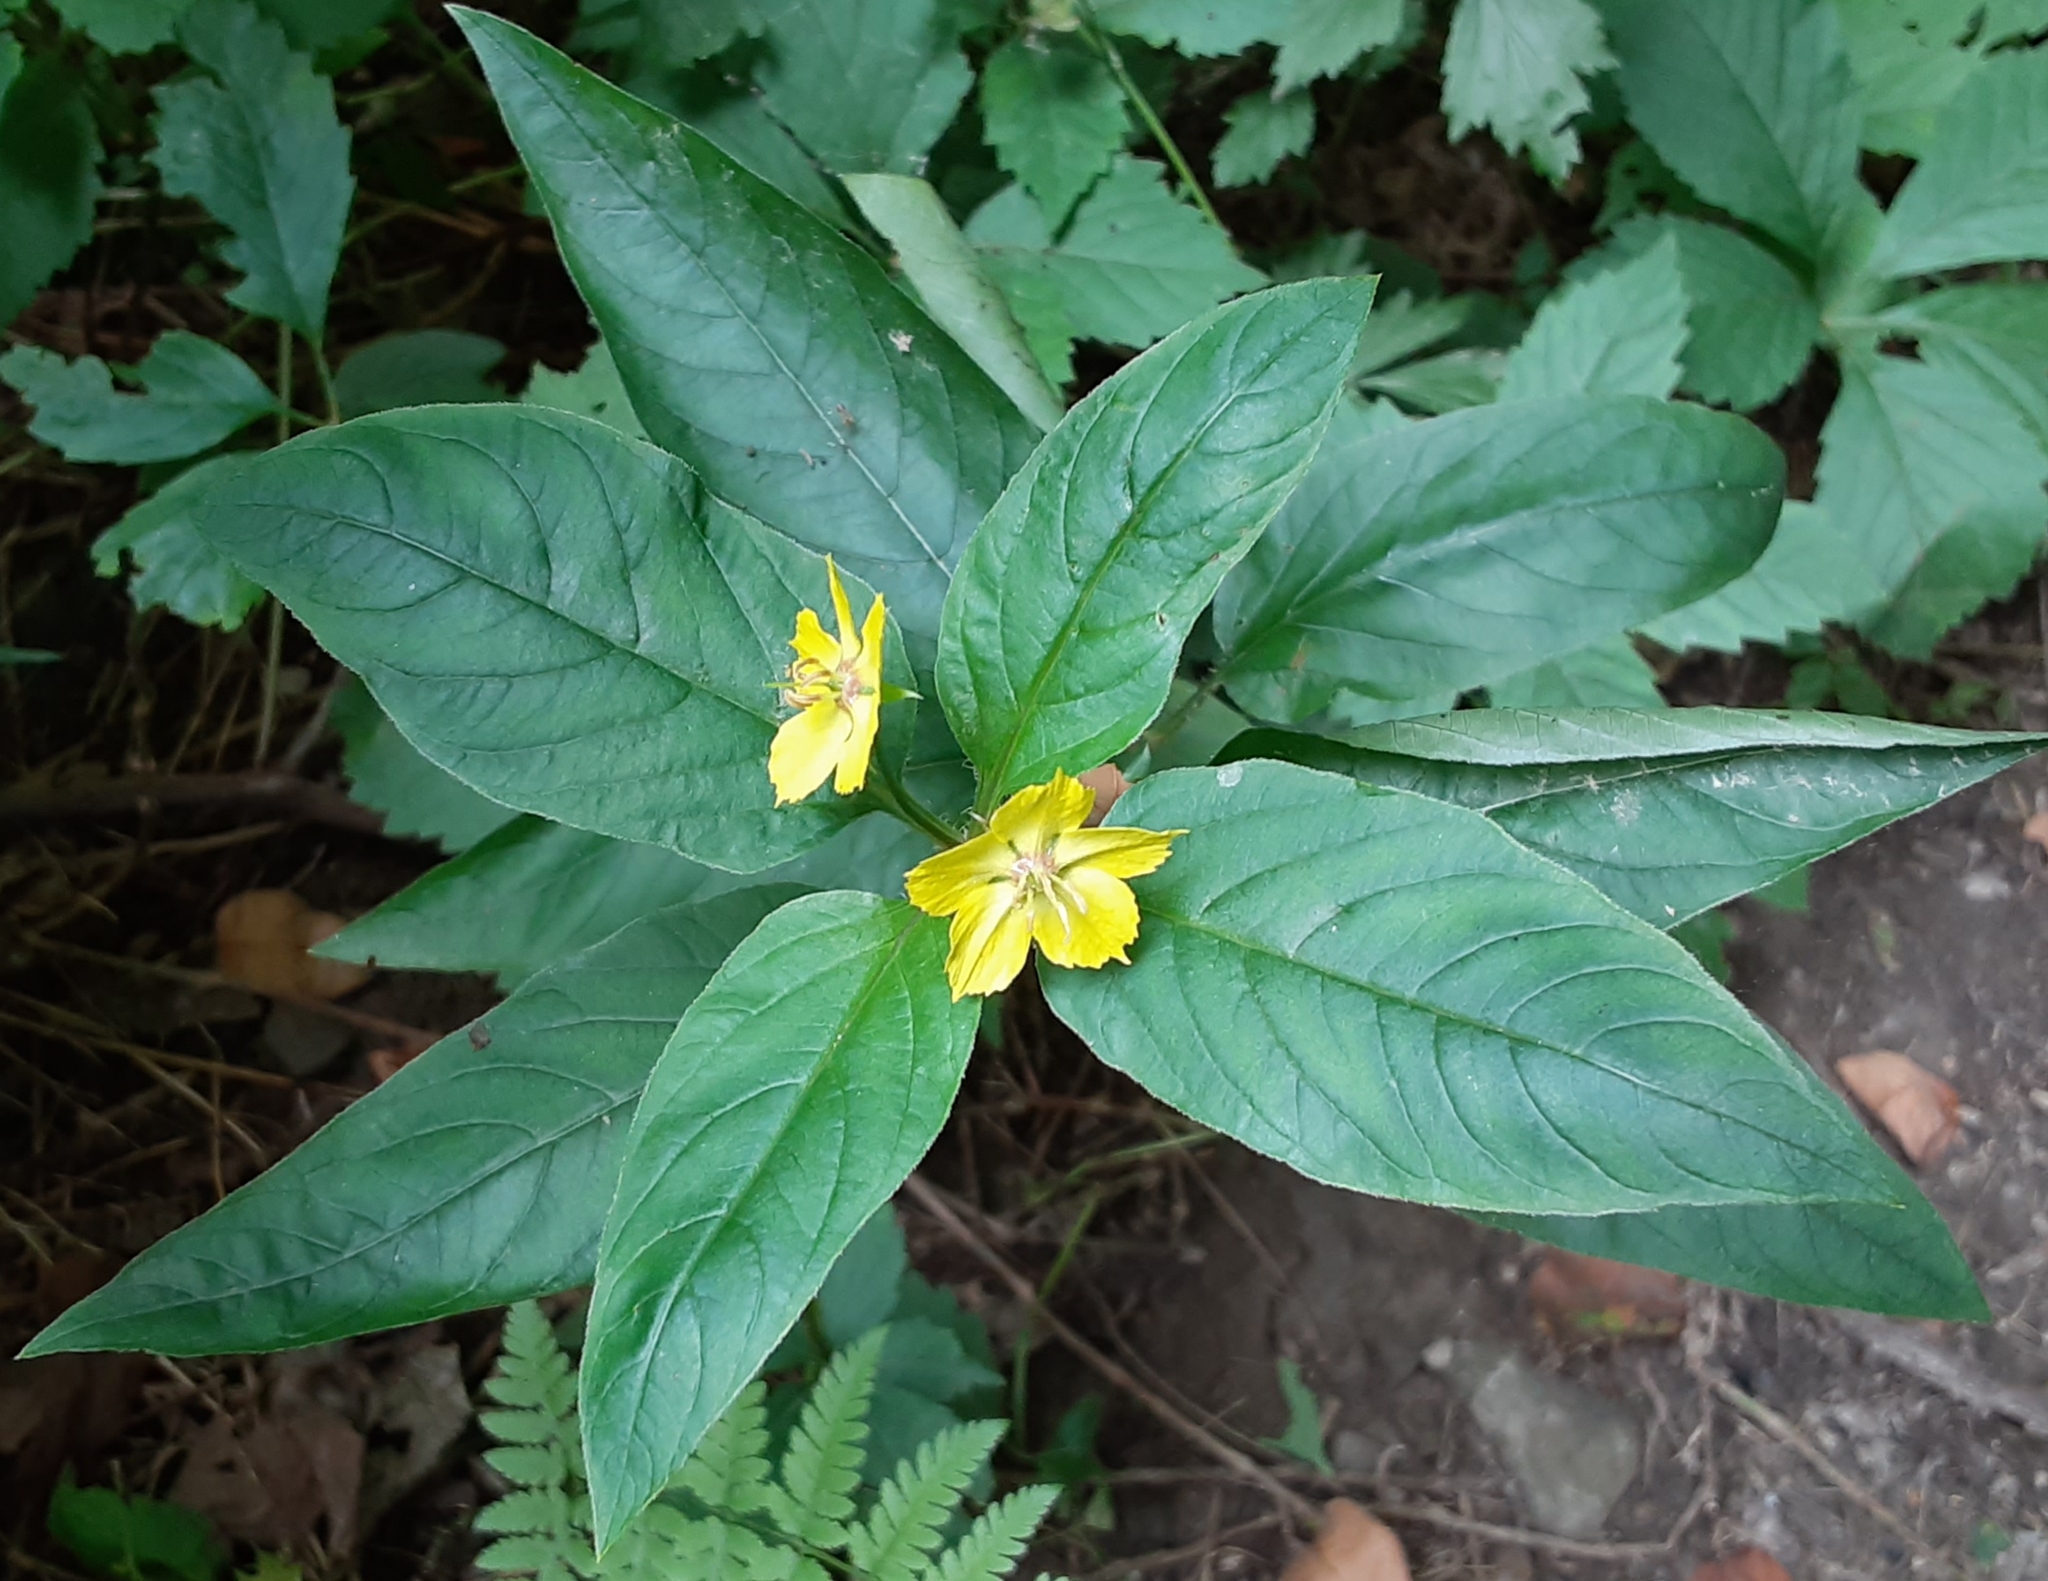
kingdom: Plantae
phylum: Tracheophyta
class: Magnoliopsida
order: Ericales
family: Primulaceae
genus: Lysimachia
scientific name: Lysimachia ciliata
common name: Fringed loosestrife
